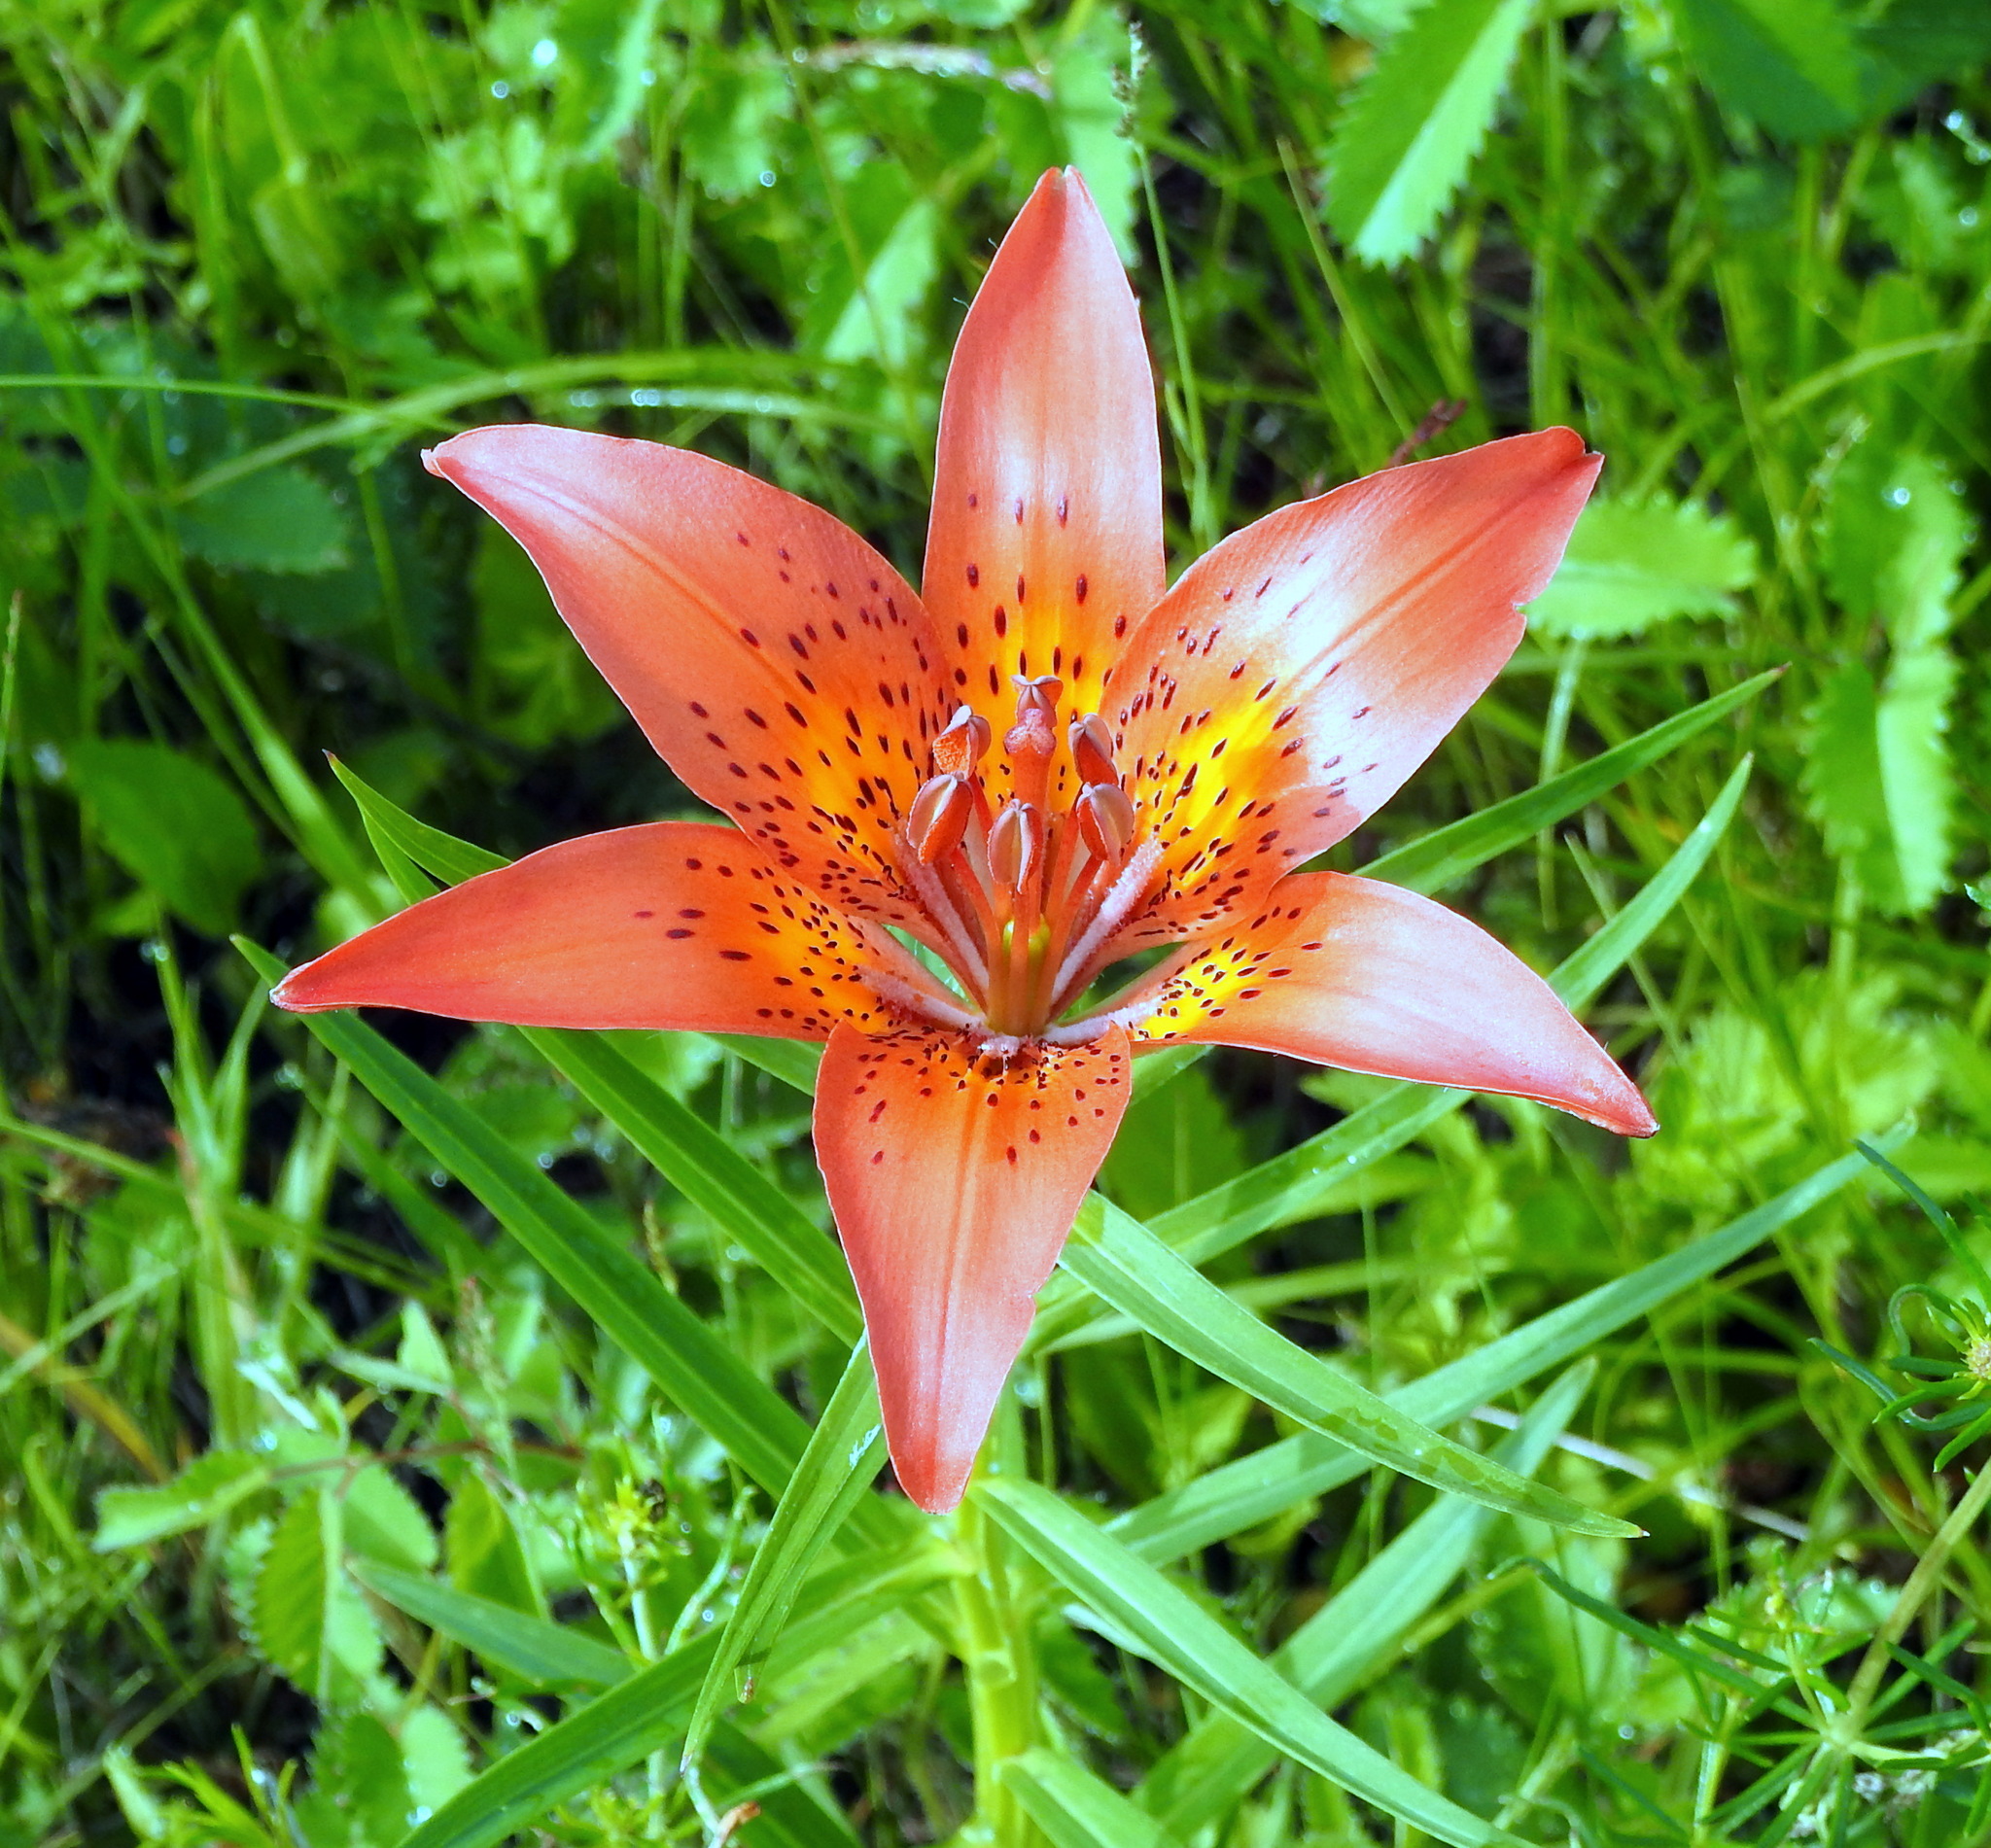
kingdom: Plantae
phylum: Tracheophyta
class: Liliopsida
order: Liliales
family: Liliaceae
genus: Lilium
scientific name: Lilium pensylvanicum
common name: Candlestick lily
